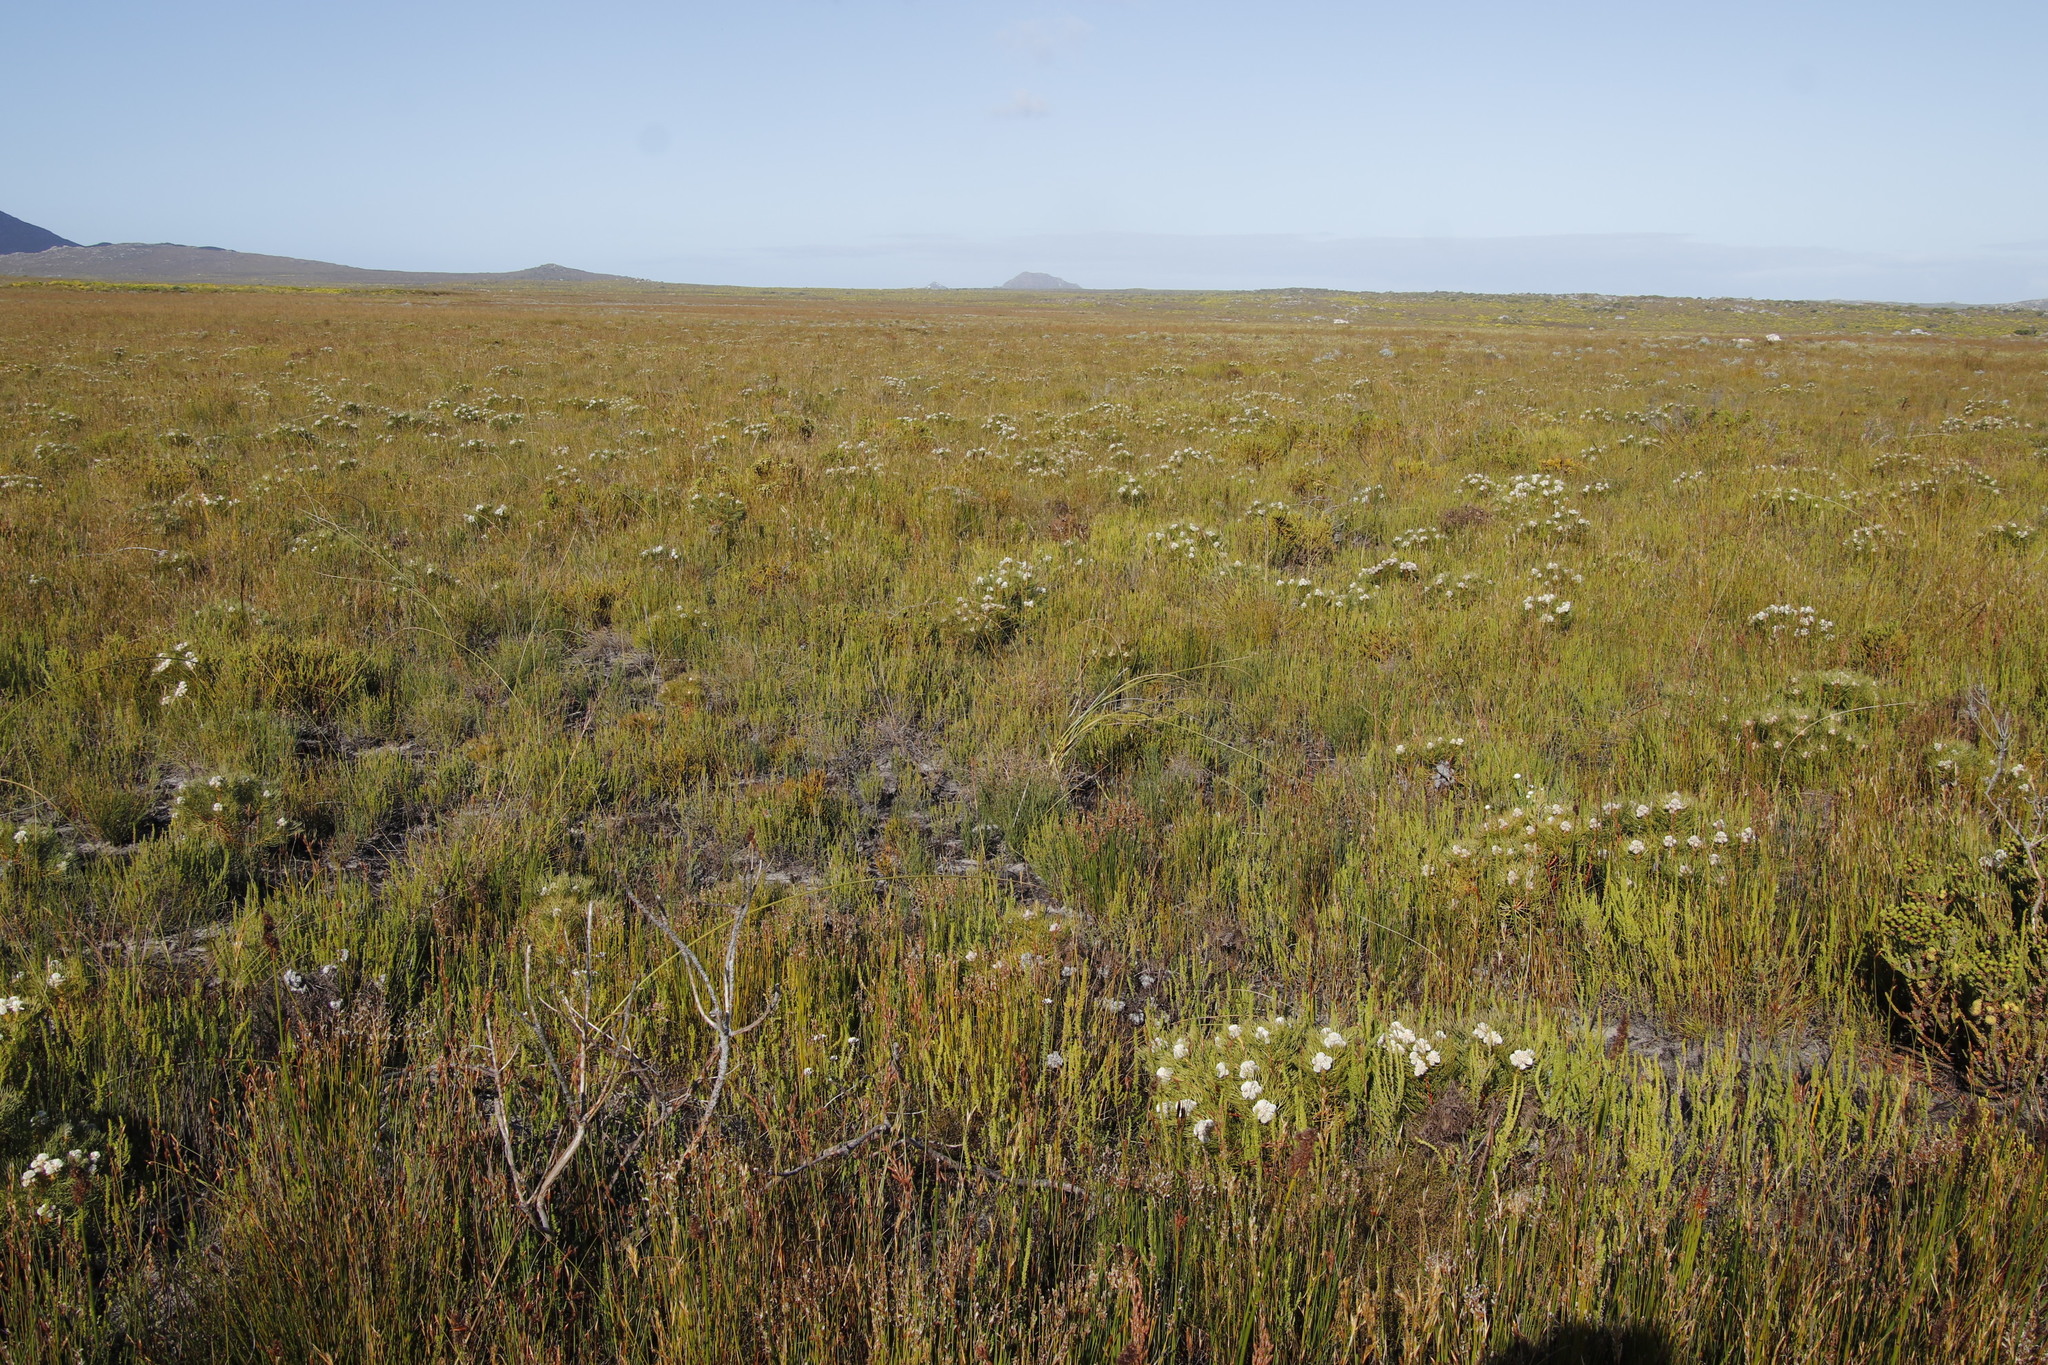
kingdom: Plantae
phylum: Tracheophyta
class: Magnoliopsida
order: Proteales
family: Proteaceae
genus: Serruria
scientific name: Serruria glomerata
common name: Cluster spiderhead
